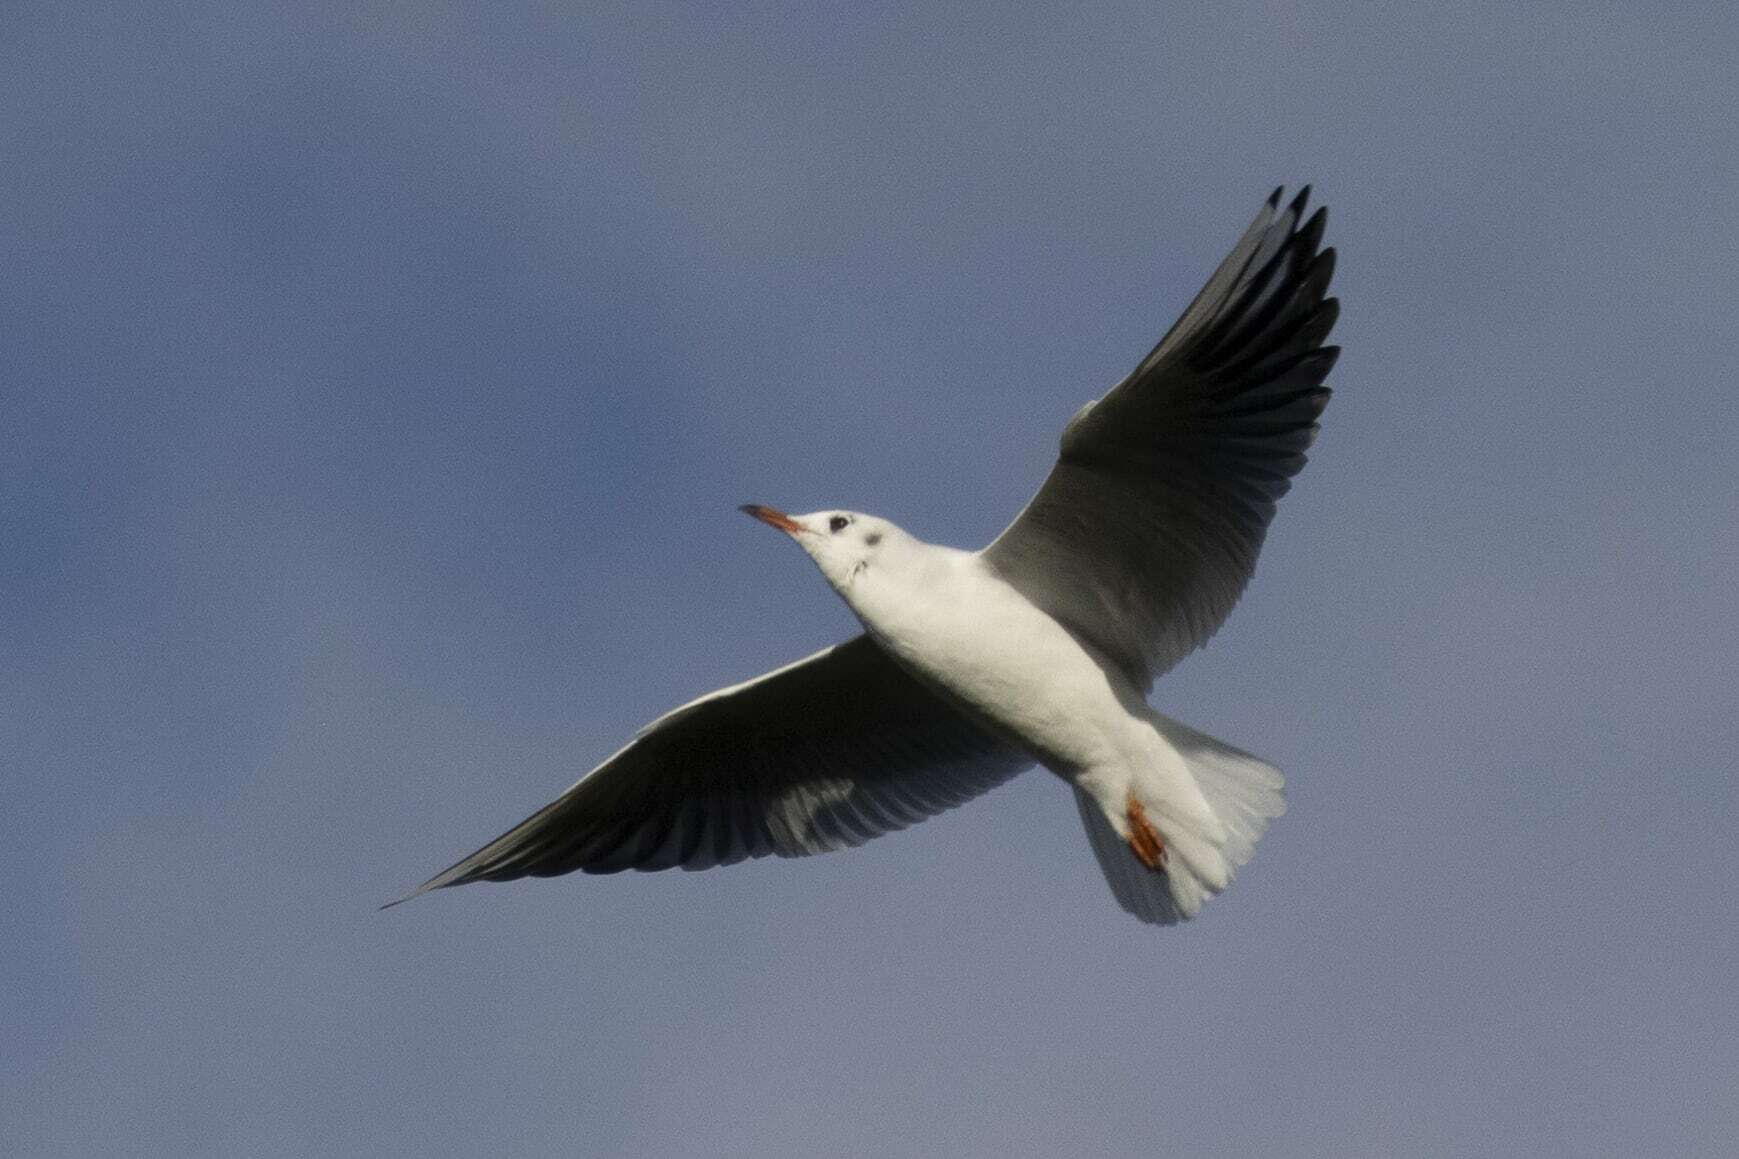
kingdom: Animalia
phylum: Chordata
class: Aves
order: Charadriiformes
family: Laridae
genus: Chroicocephalus
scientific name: Chroicocephalus ridibundus
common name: Black-headed gull
